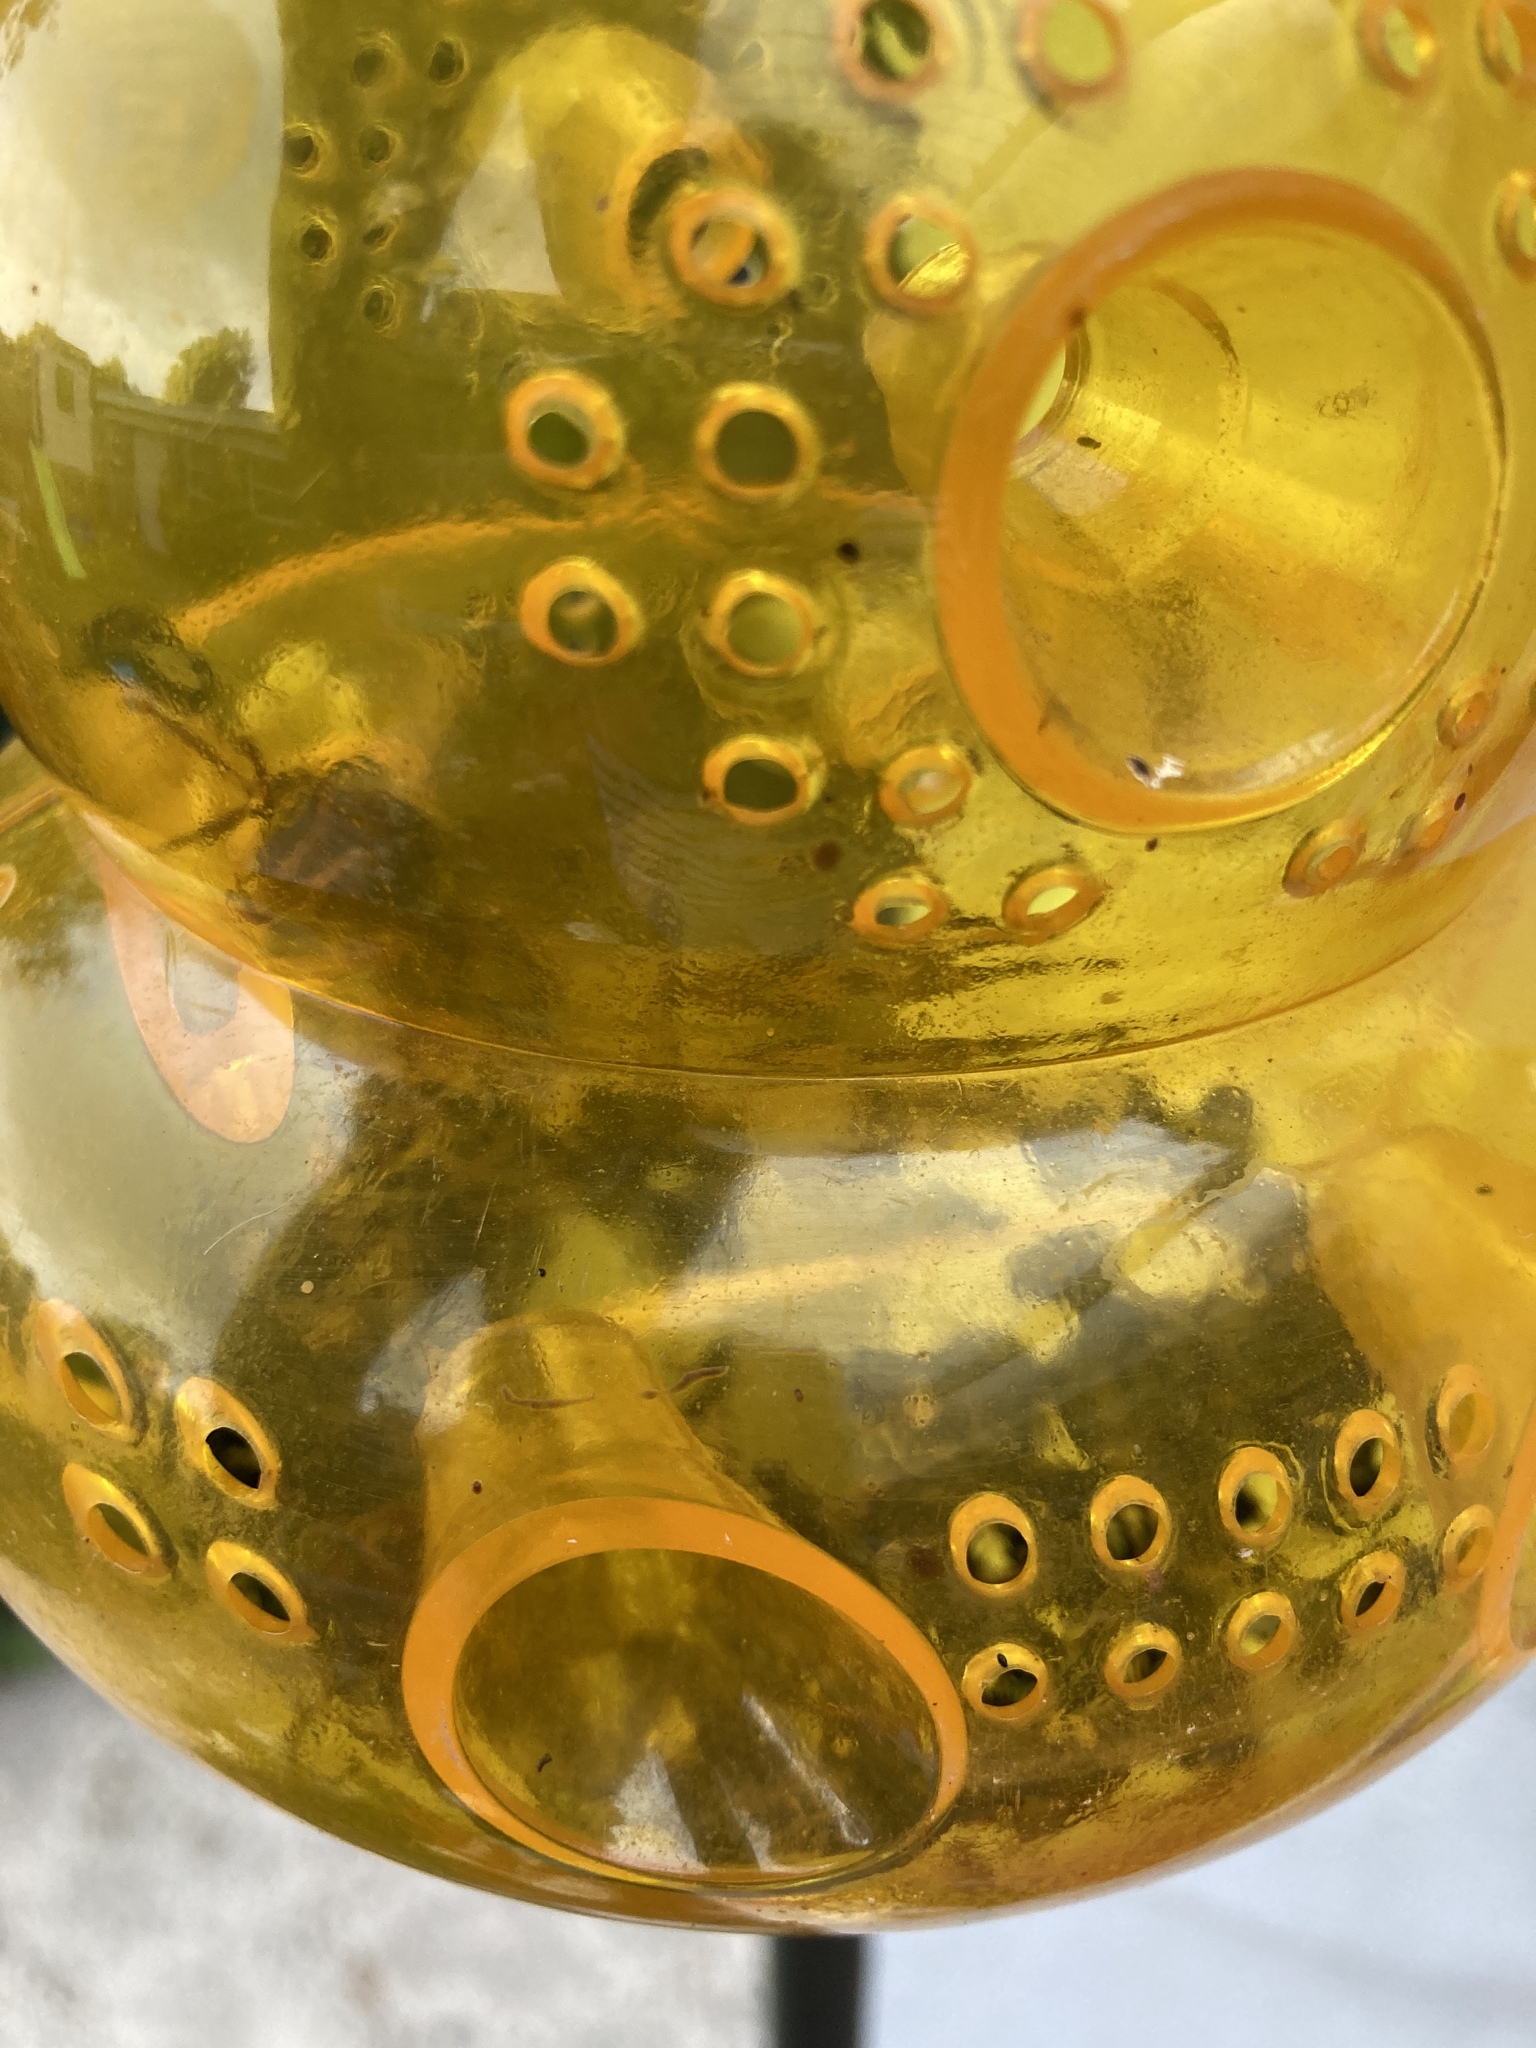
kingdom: Animalia
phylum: Arthropoda
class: Insecta
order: Hymenoptera
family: Vespidae
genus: Vespa
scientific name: Vespa crabro
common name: Hornet
